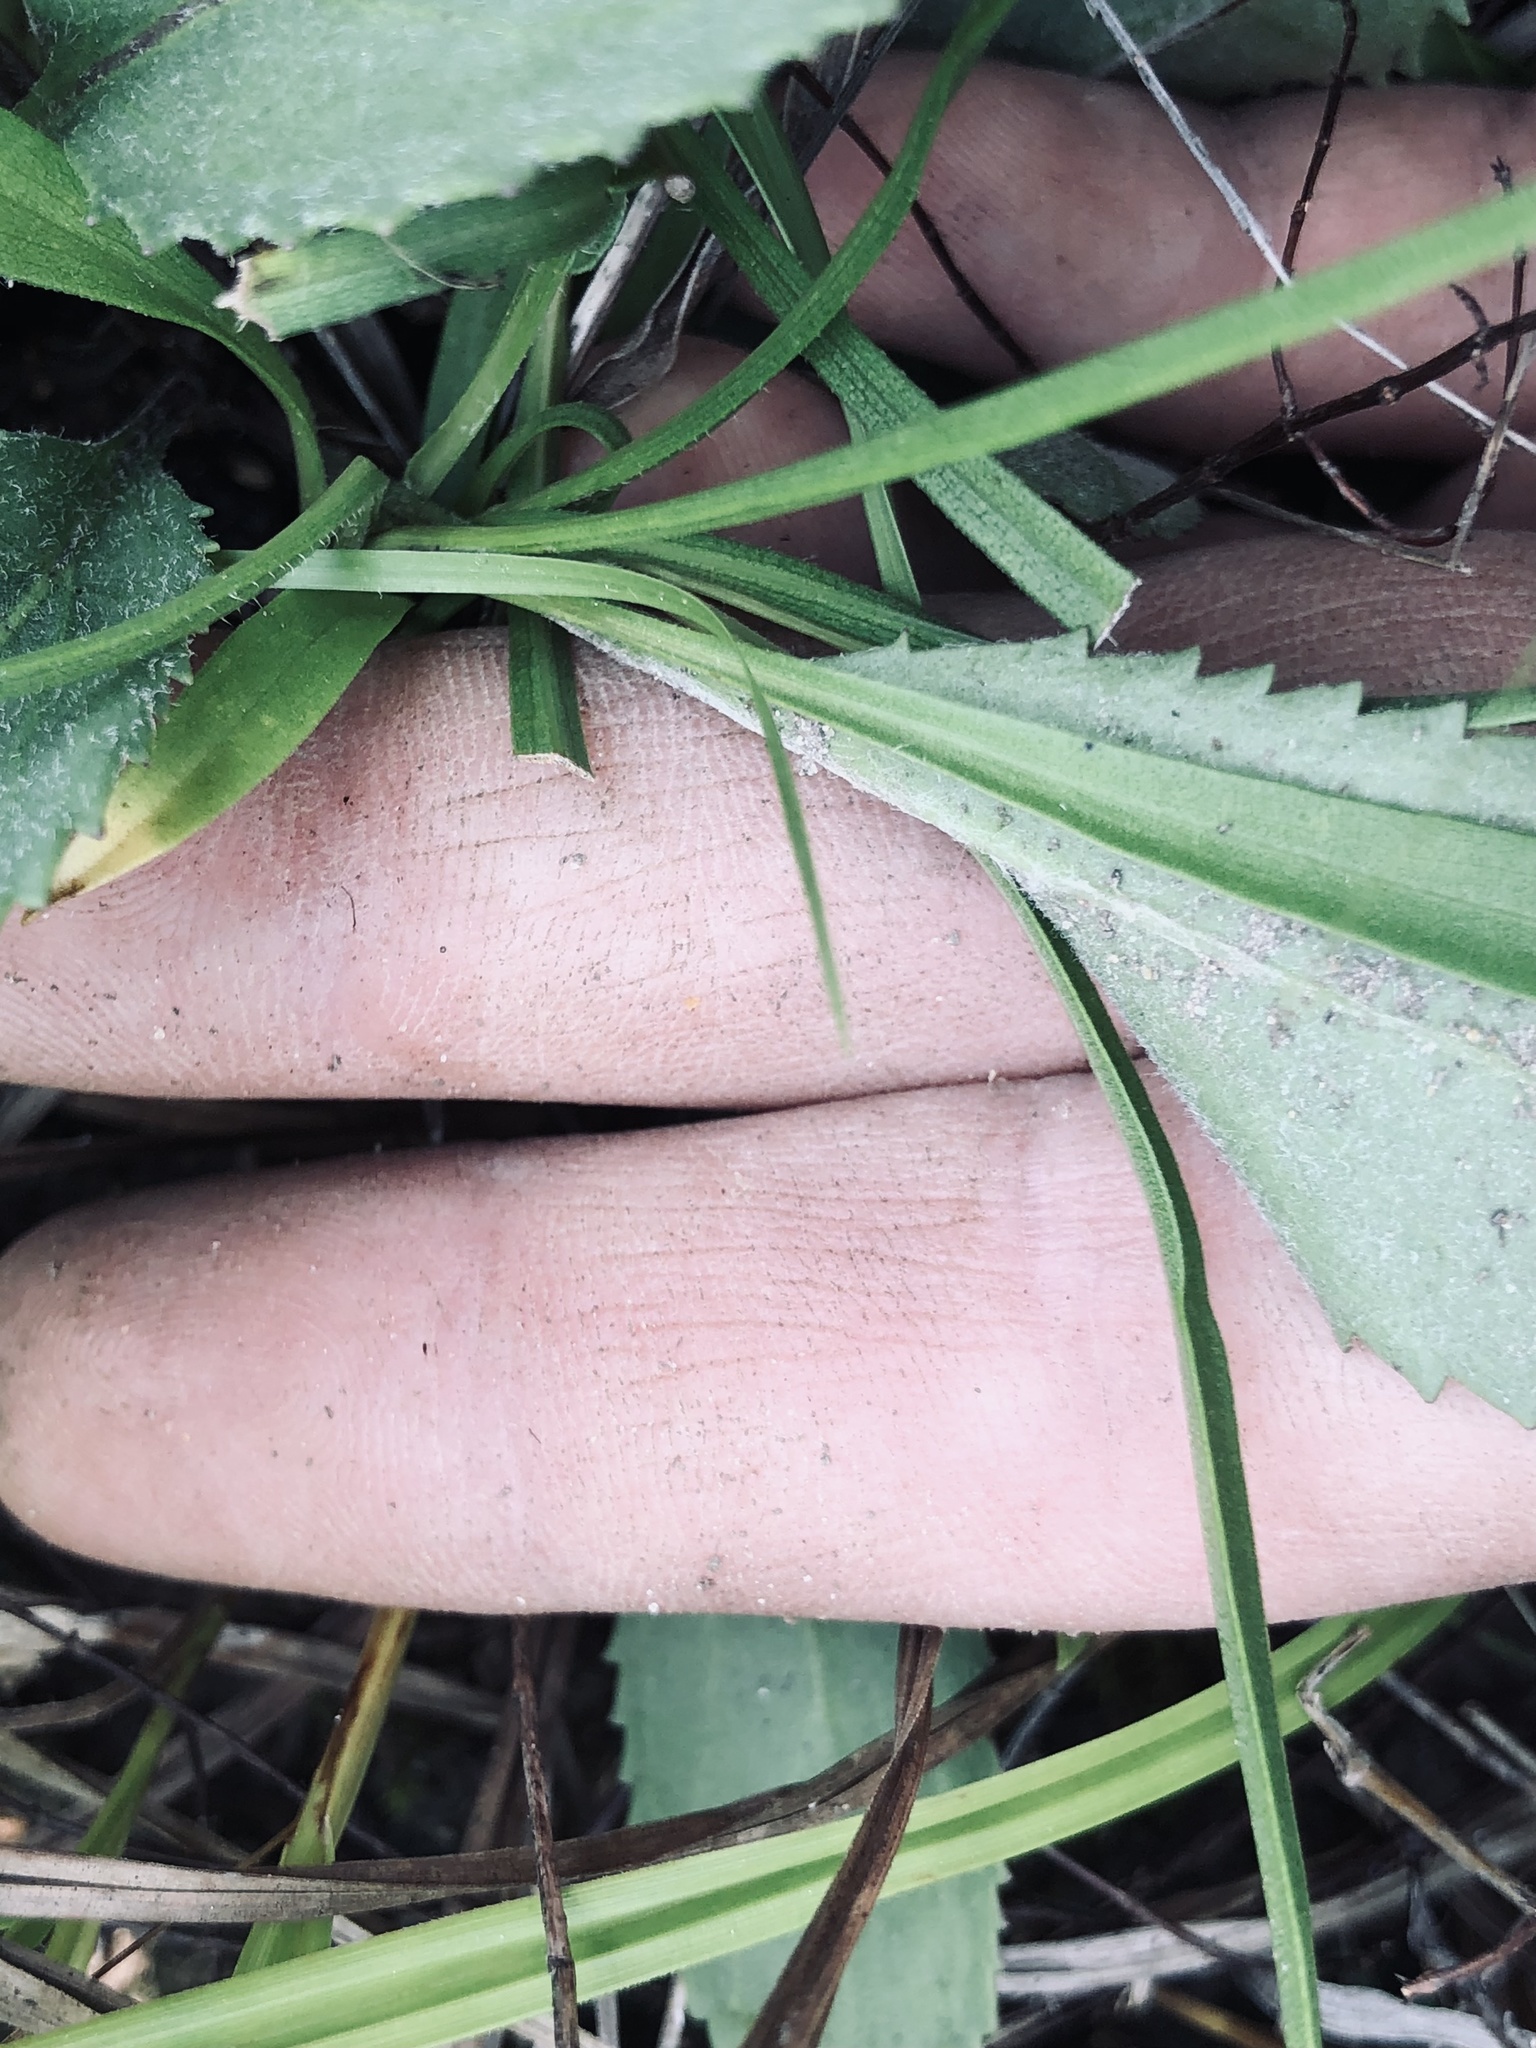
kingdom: Plantae
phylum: Tracheophyta
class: Magnoliopsida
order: Asterales
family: Asteraceae
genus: Packera
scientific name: Packera paupercula
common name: Balsam groundsel
